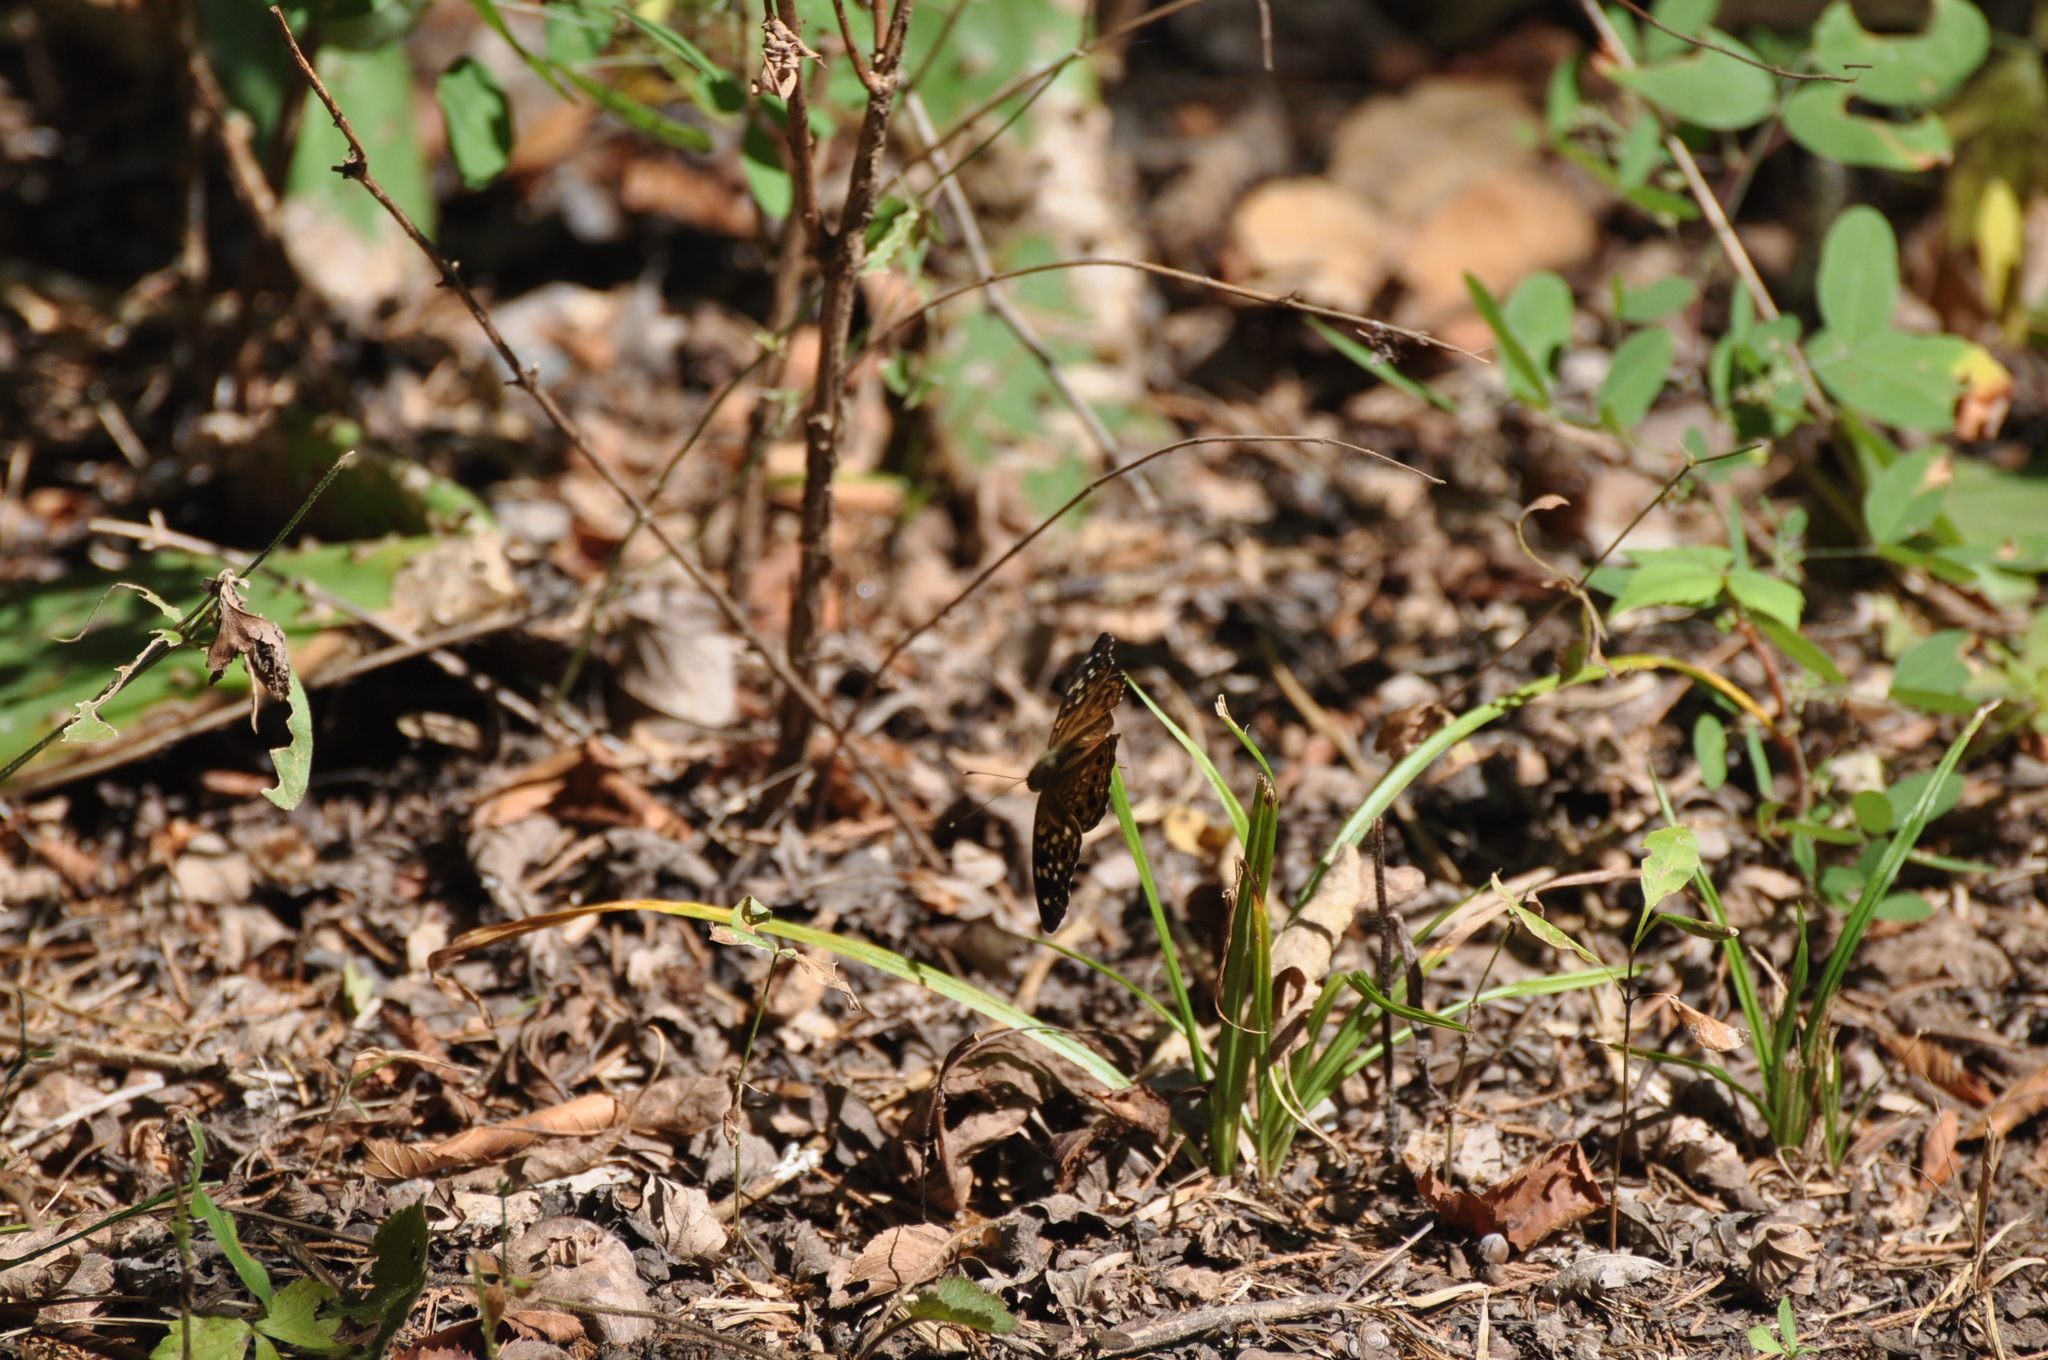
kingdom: Animalia
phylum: Arthropoda
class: Insecta
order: Lepidoptera
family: Nymphalidae
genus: Asterocampa
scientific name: Asterocampa celtis
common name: Hackberry emperor
